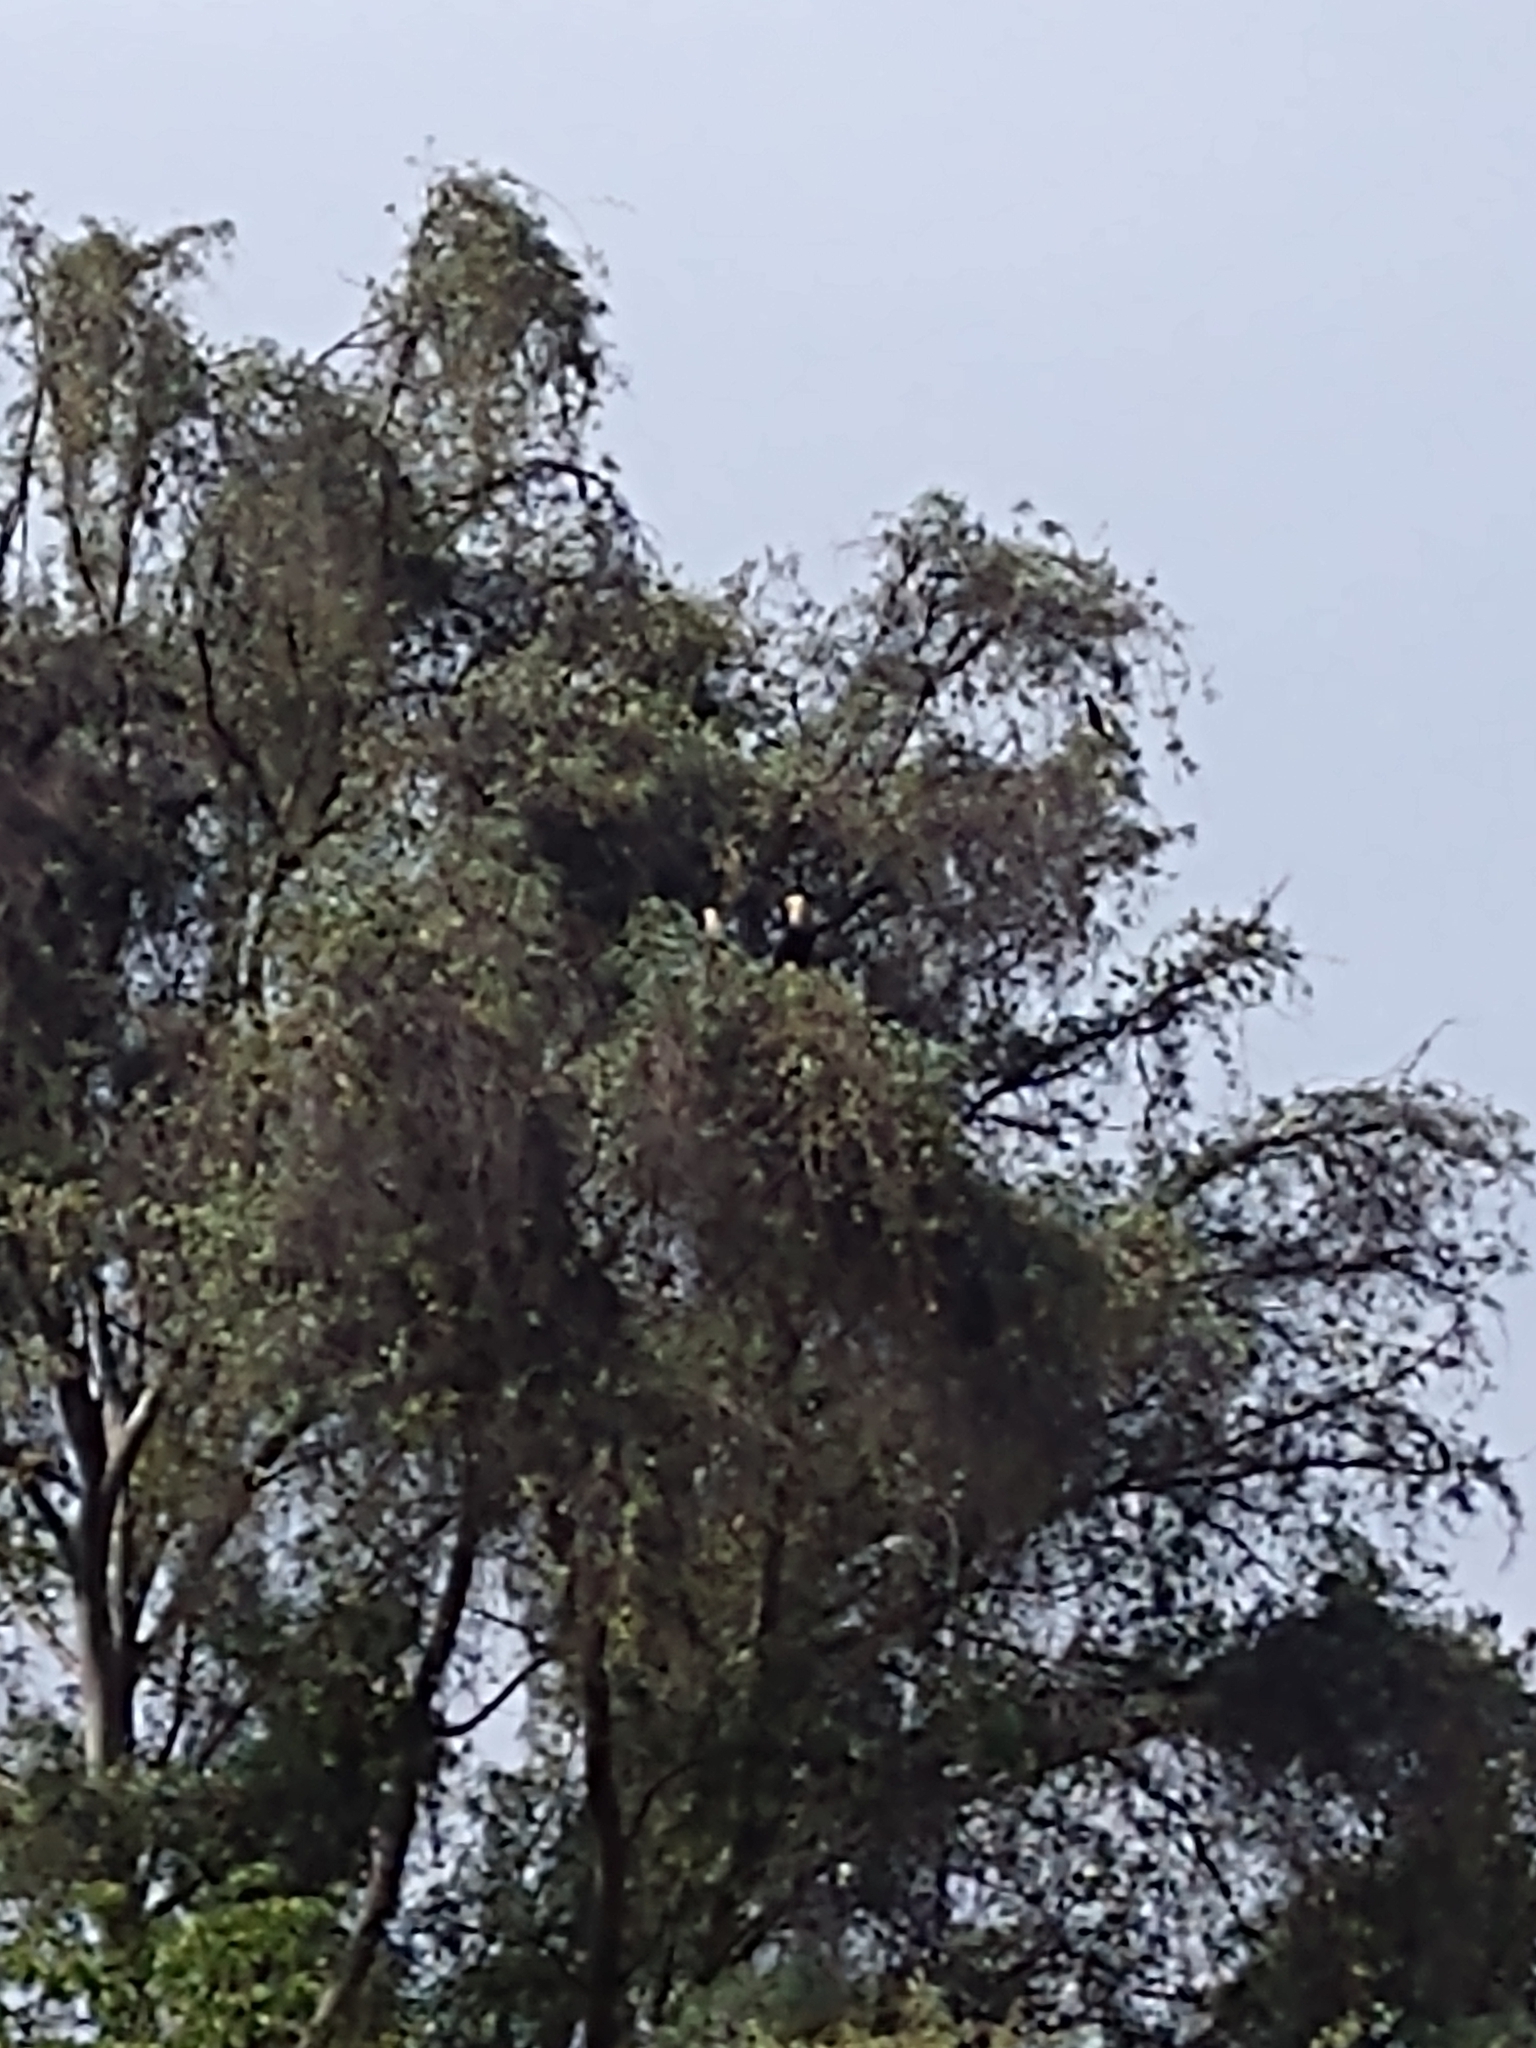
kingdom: Animalia
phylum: Chordata
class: Aves
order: Falconiformes
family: Falconidae
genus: Caracara
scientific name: Caracara plancus
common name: Southern caracara
